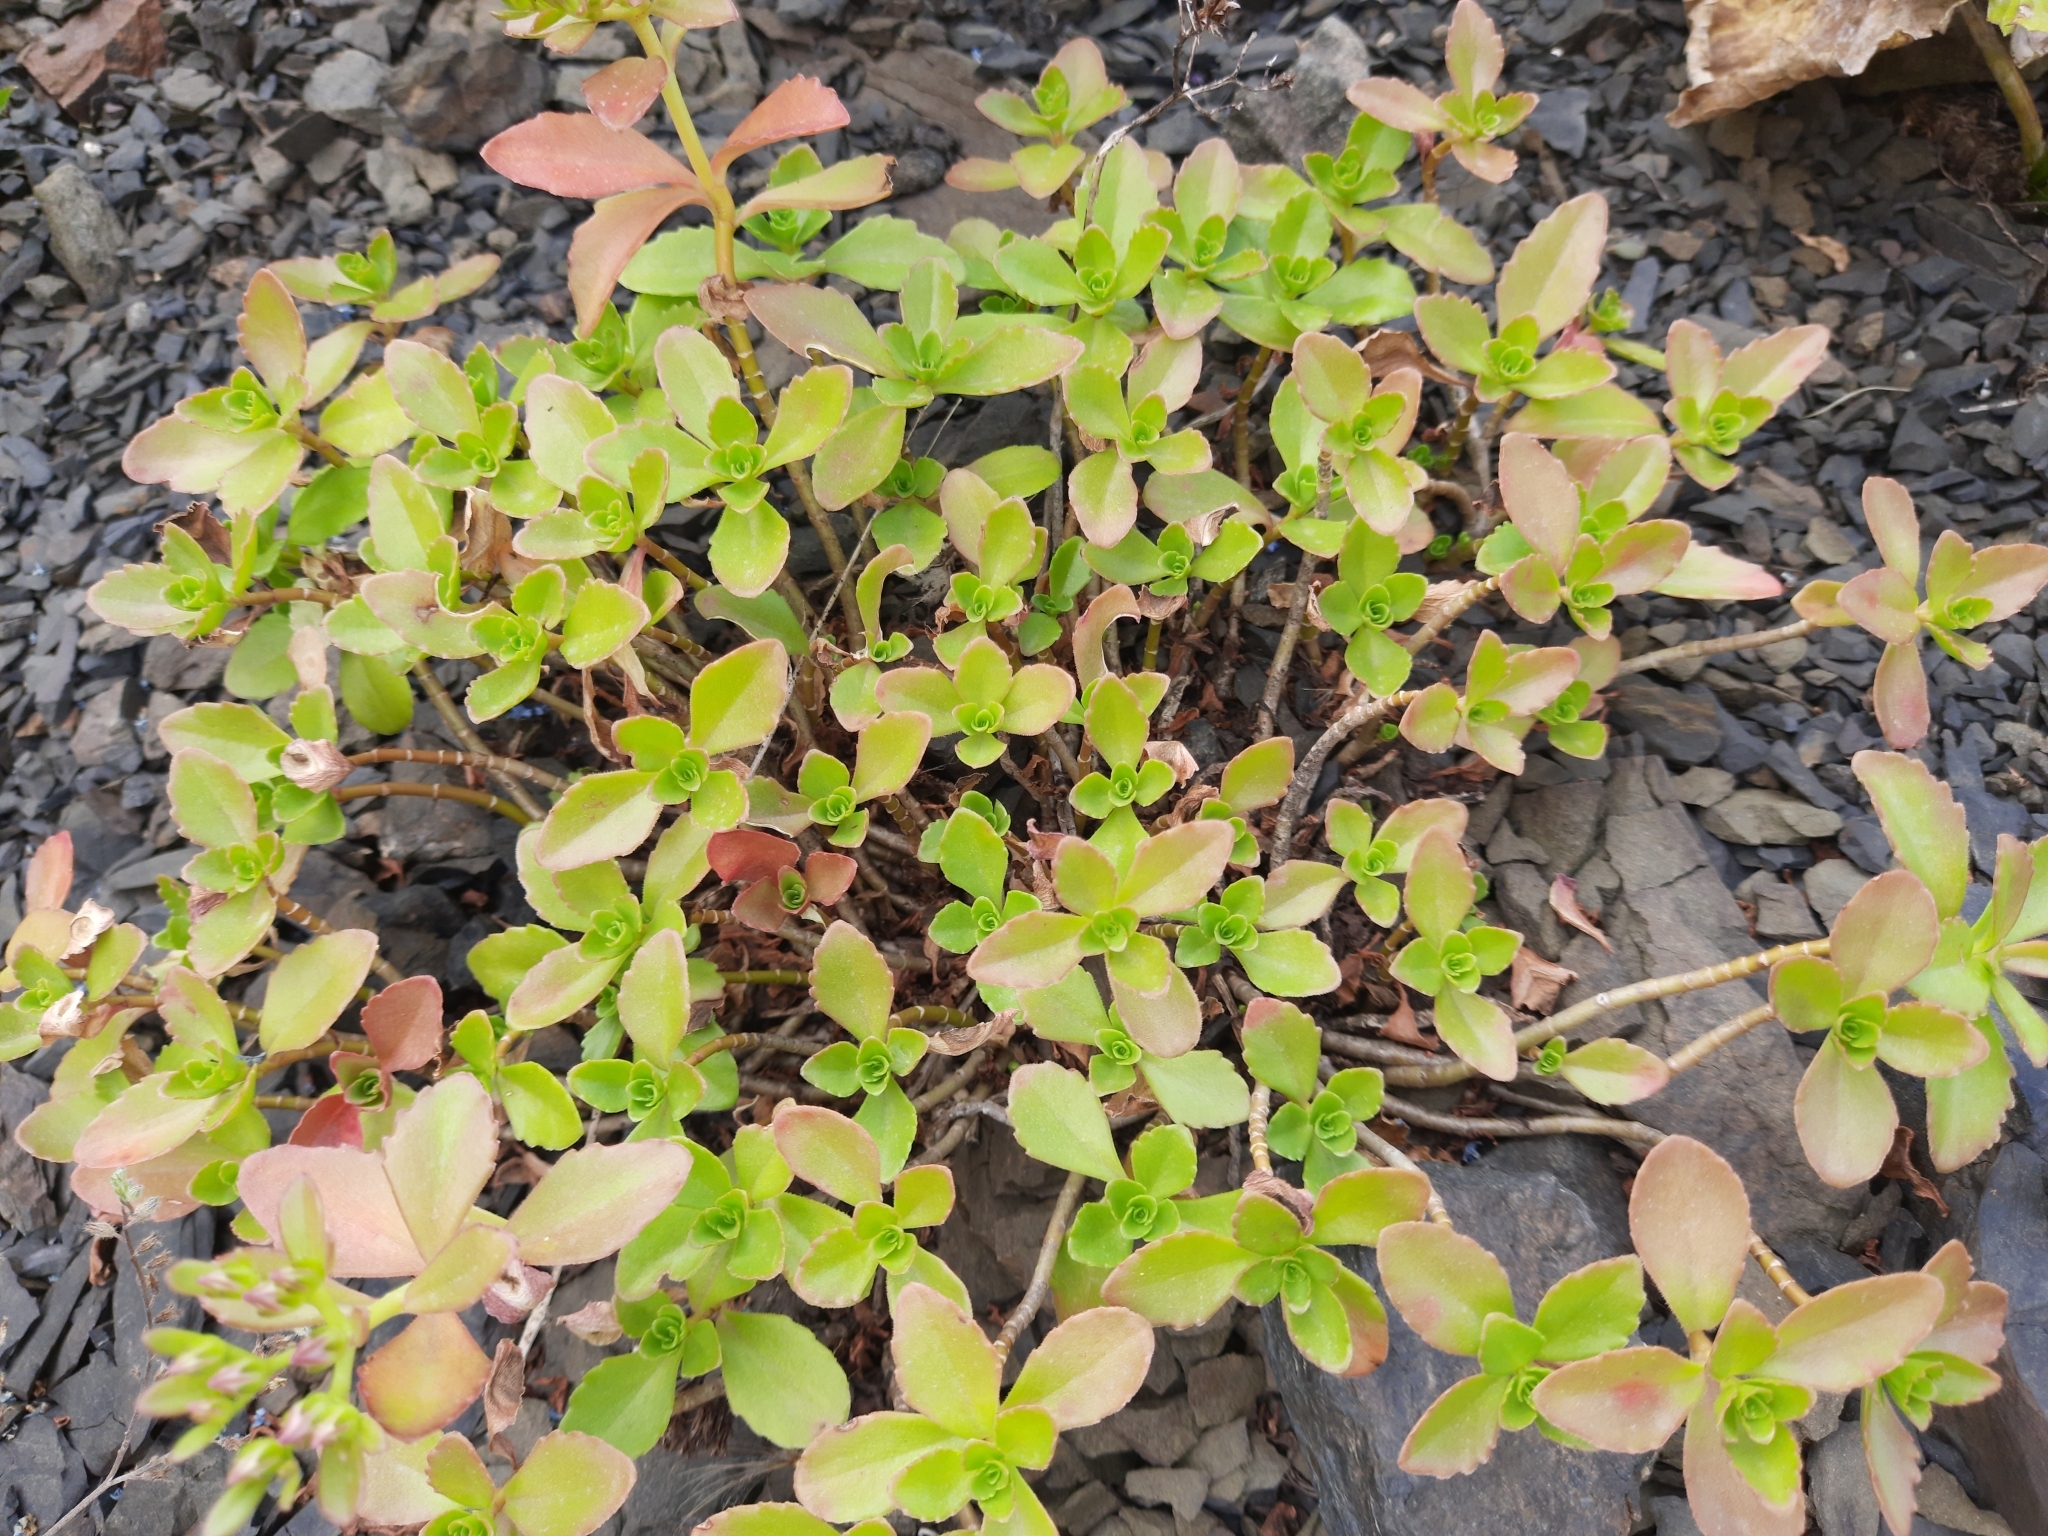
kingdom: Plantae
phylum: Tracheophyta
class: Magnoliopsida
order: Saxifragales
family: Crassulaceae
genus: Phedimus
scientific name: Phedimus spurius
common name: Caucasian stonecrop
